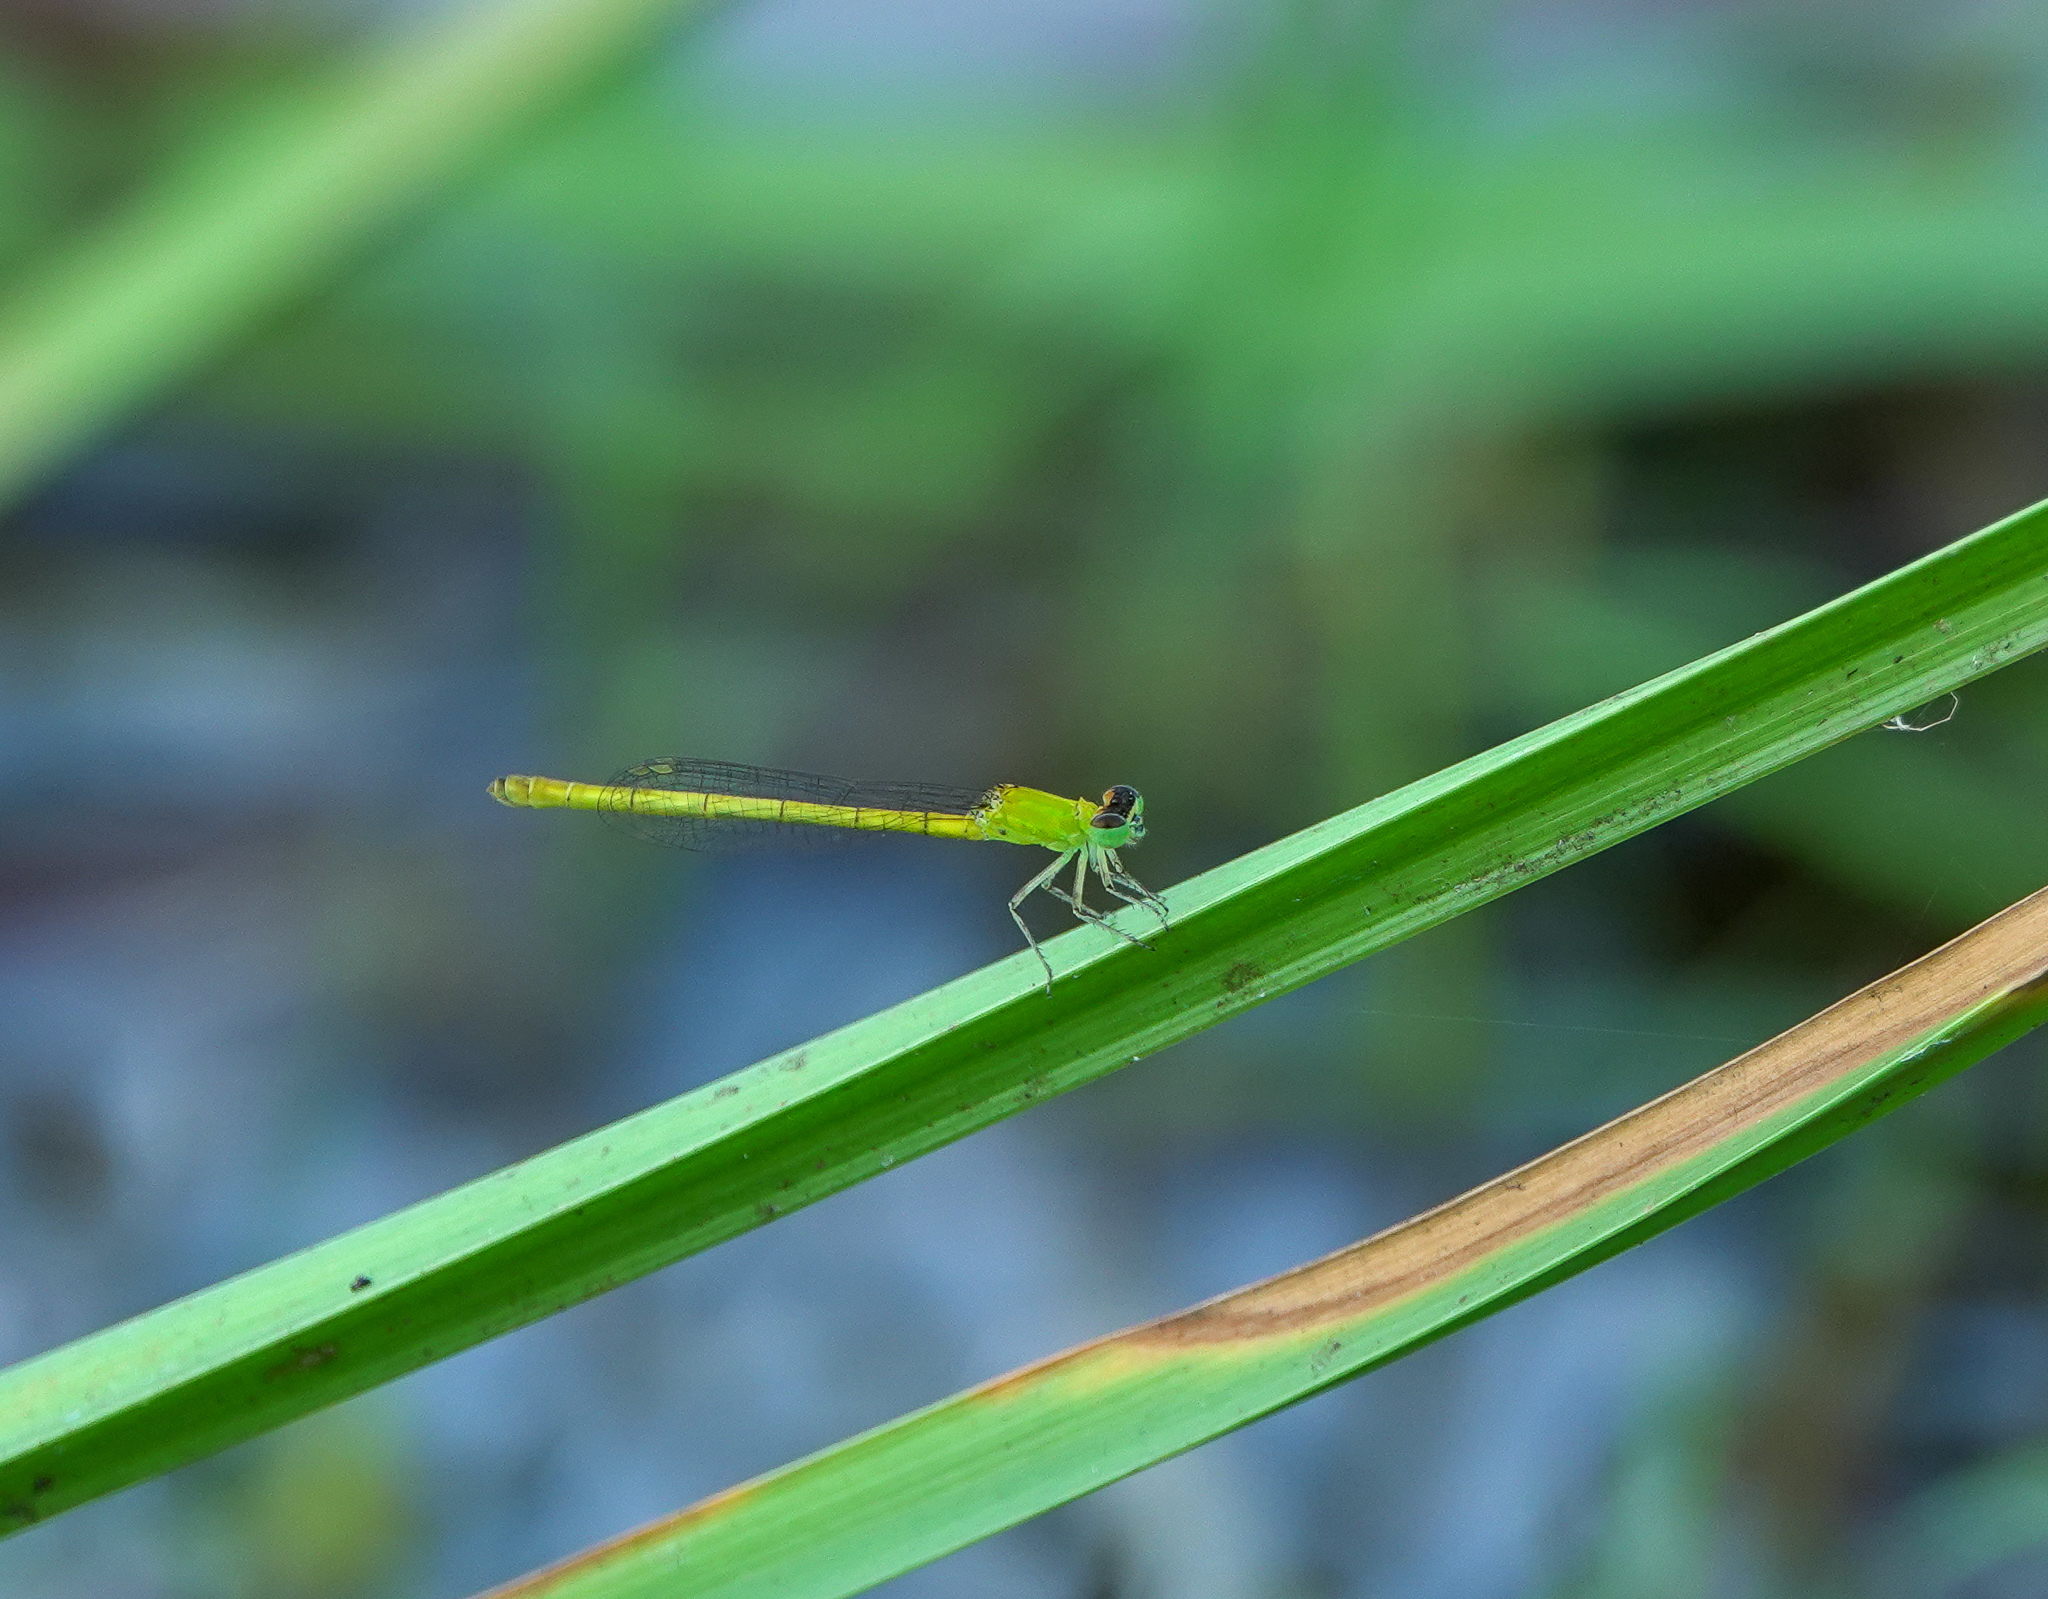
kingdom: Animalia
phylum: Arthropoda
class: Insecta
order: Odonata
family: Coenagrionidae
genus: Agriocnemis
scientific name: Agriocnemis kalinga
